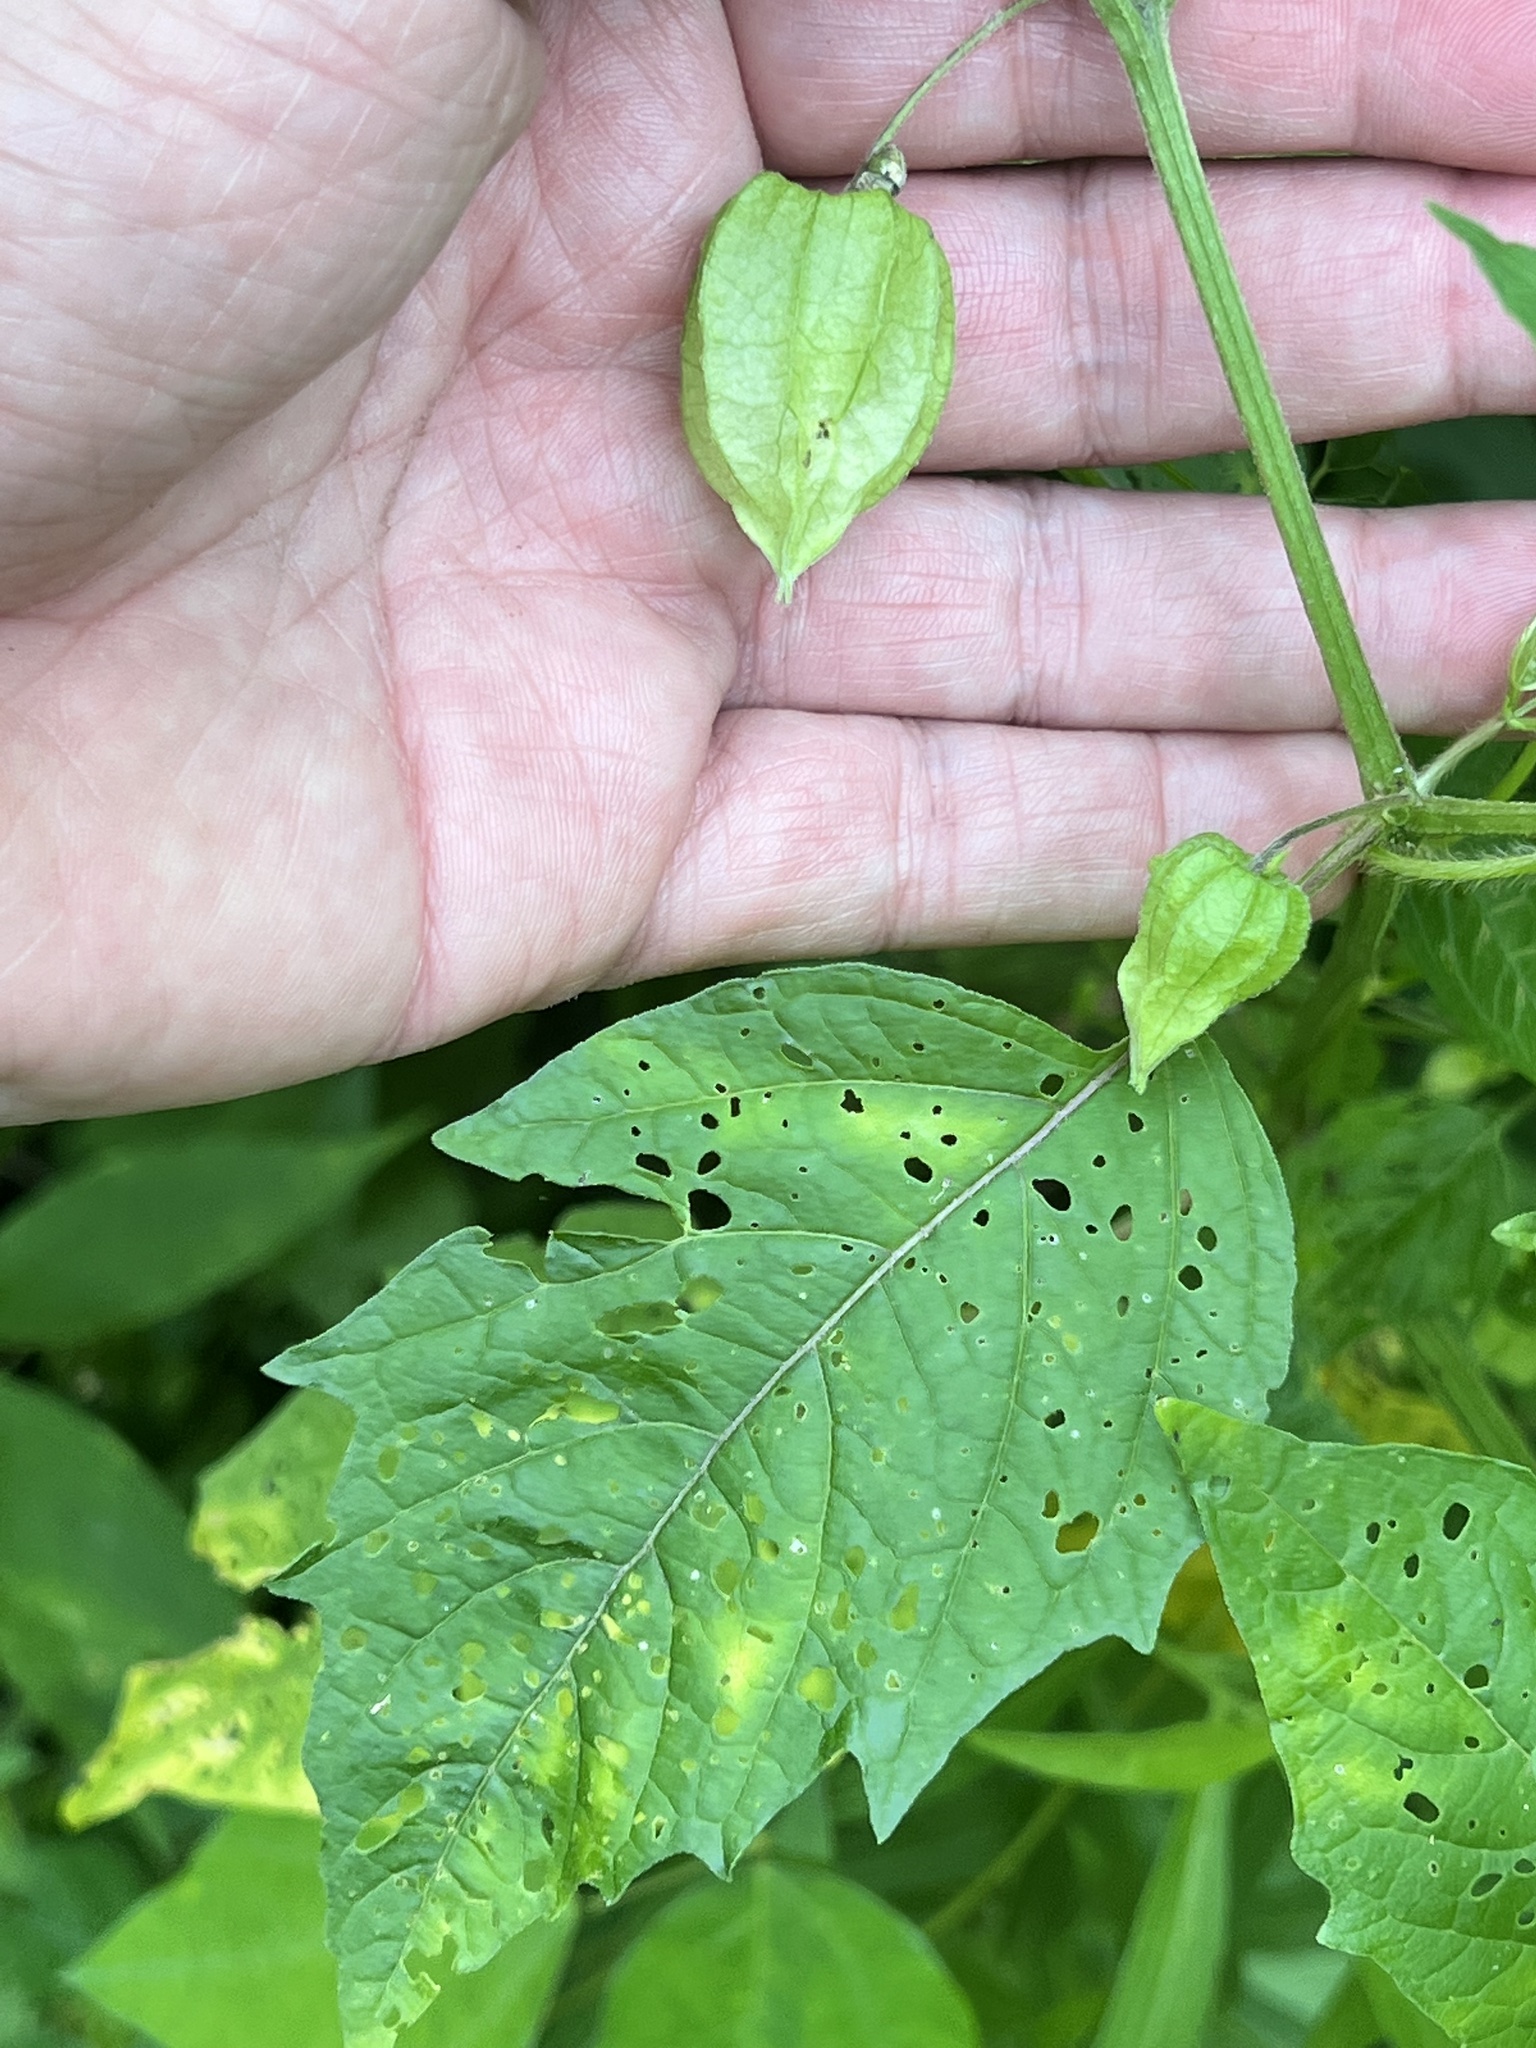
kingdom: Plantae
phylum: Tracheophyta
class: Magnoliopsida
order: Solanales
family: Solanaceae
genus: Physalis
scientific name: Physalis longifolia
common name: Common ground-cherry
